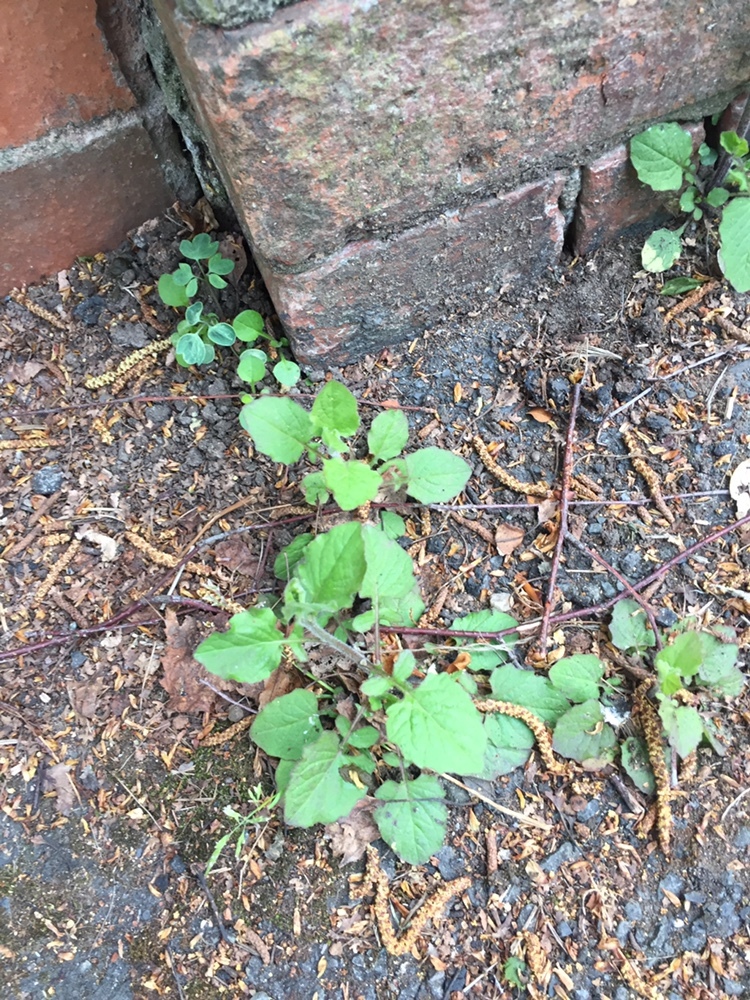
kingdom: Plantae
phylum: Tracheophyta
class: Magnoliopsida
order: Asterales
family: Asteraceae
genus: Lapsana
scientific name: Lapsana communis
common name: Nipplewort
